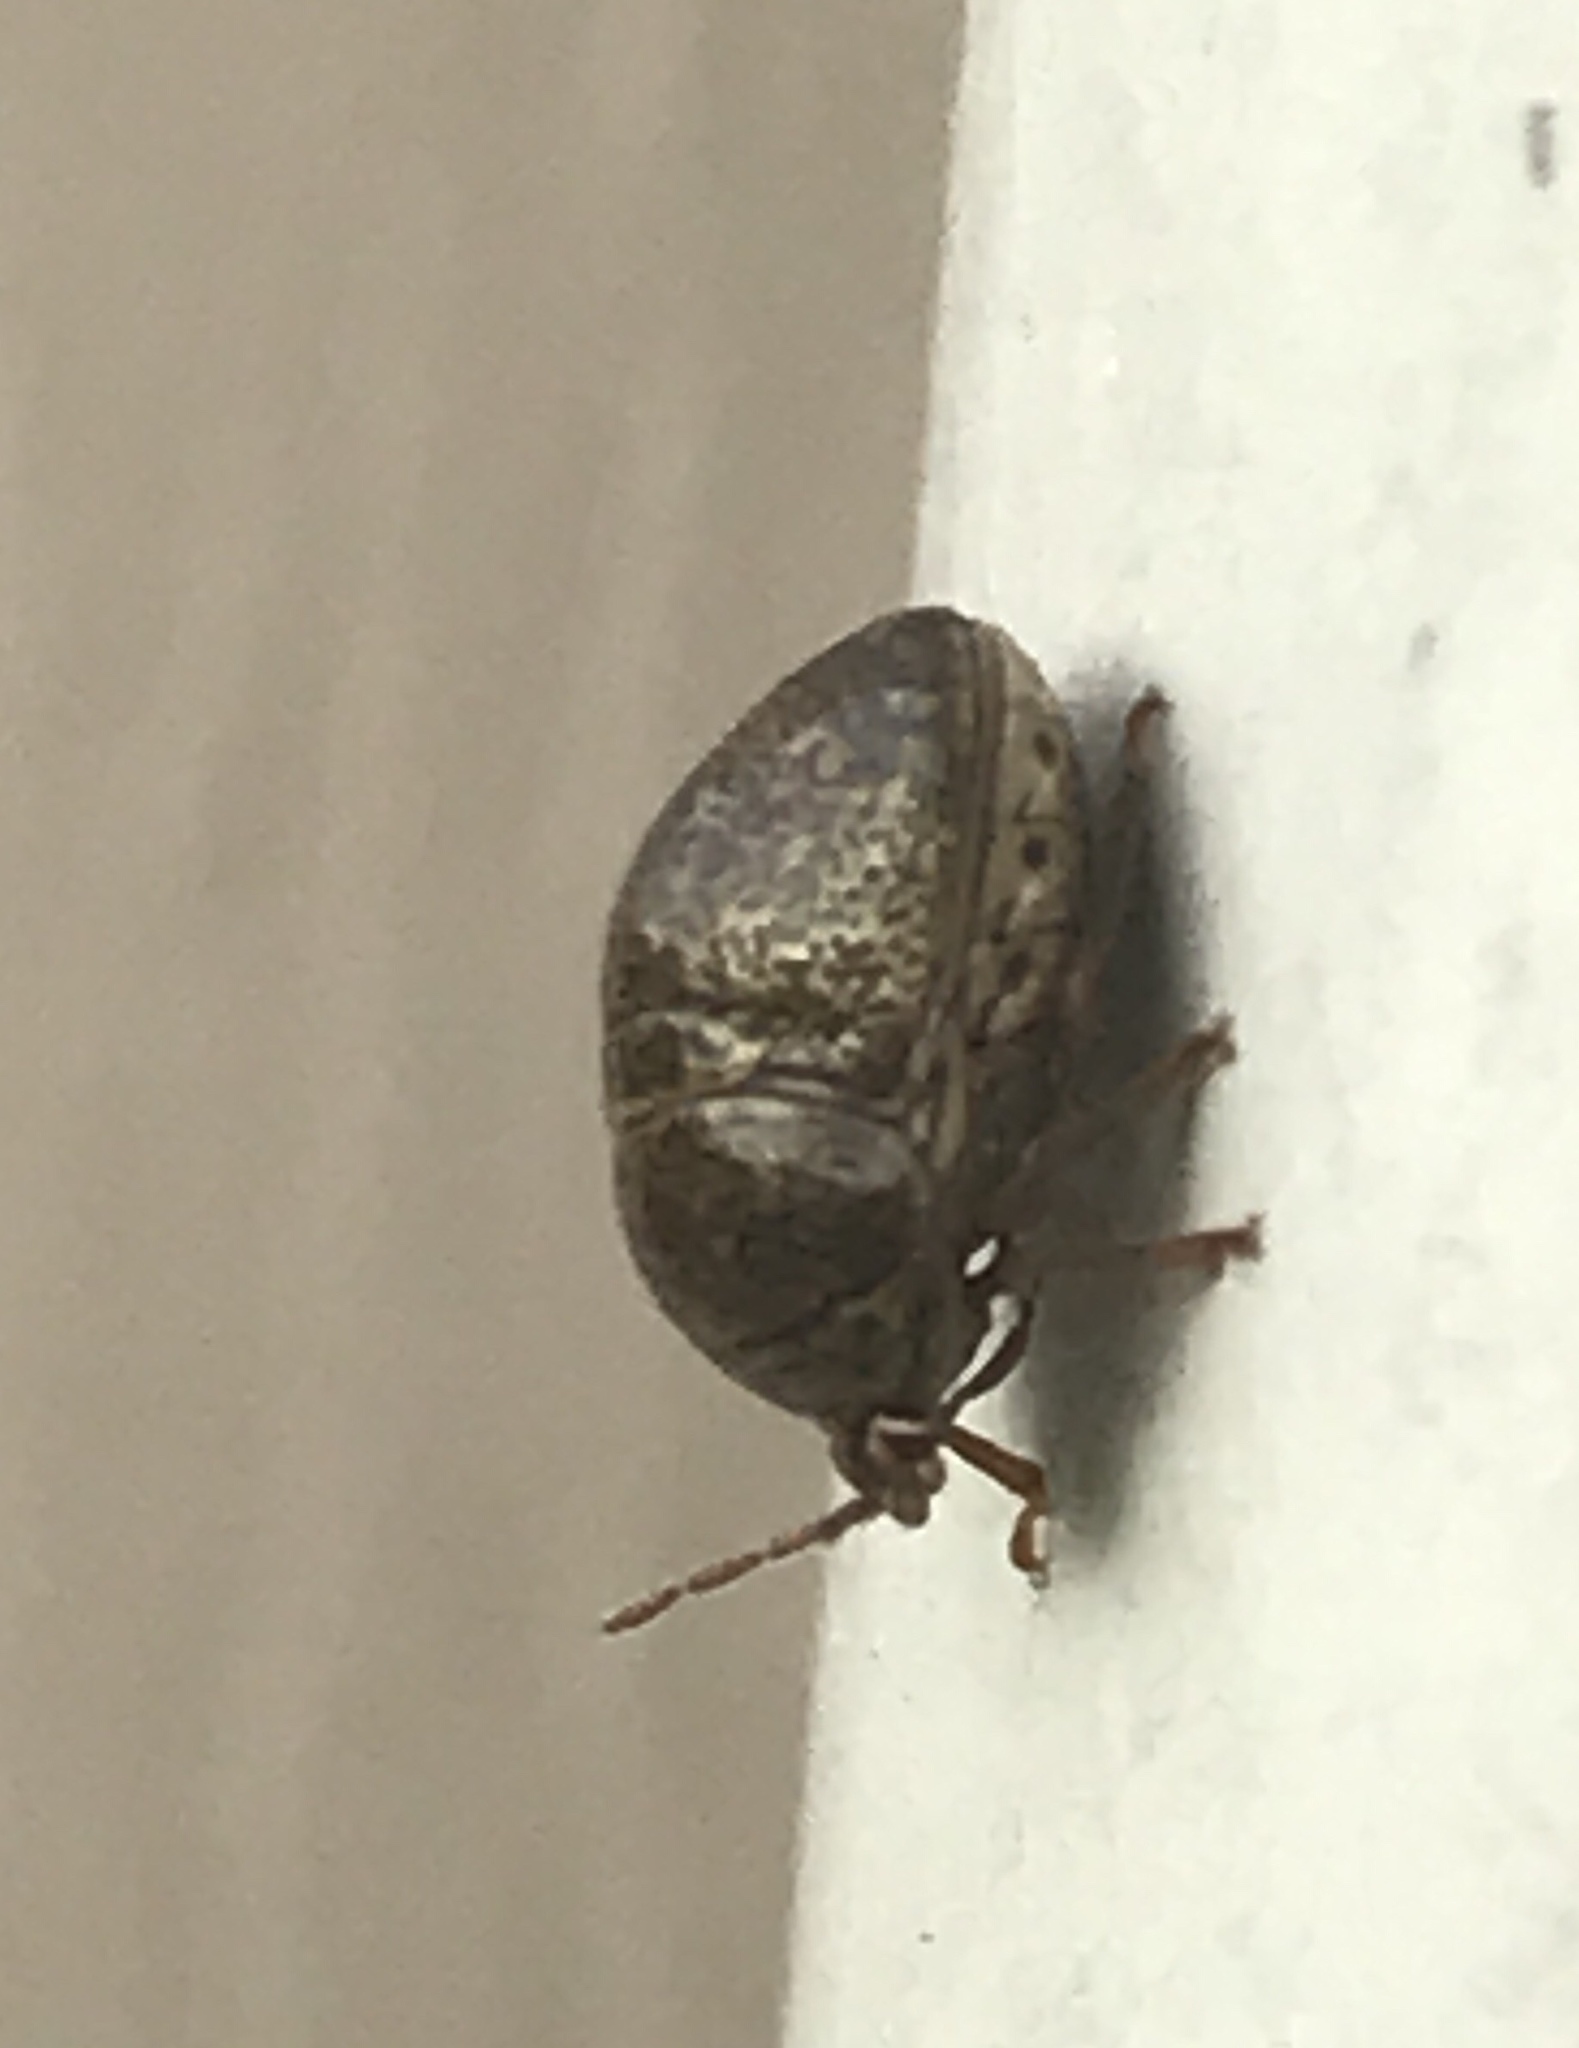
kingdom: Animalia
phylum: Arthropoda
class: Insecta
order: Hemiptera
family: Plataspidae
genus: Megacopta
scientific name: Megacopta cribraria
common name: Bean plataspid
